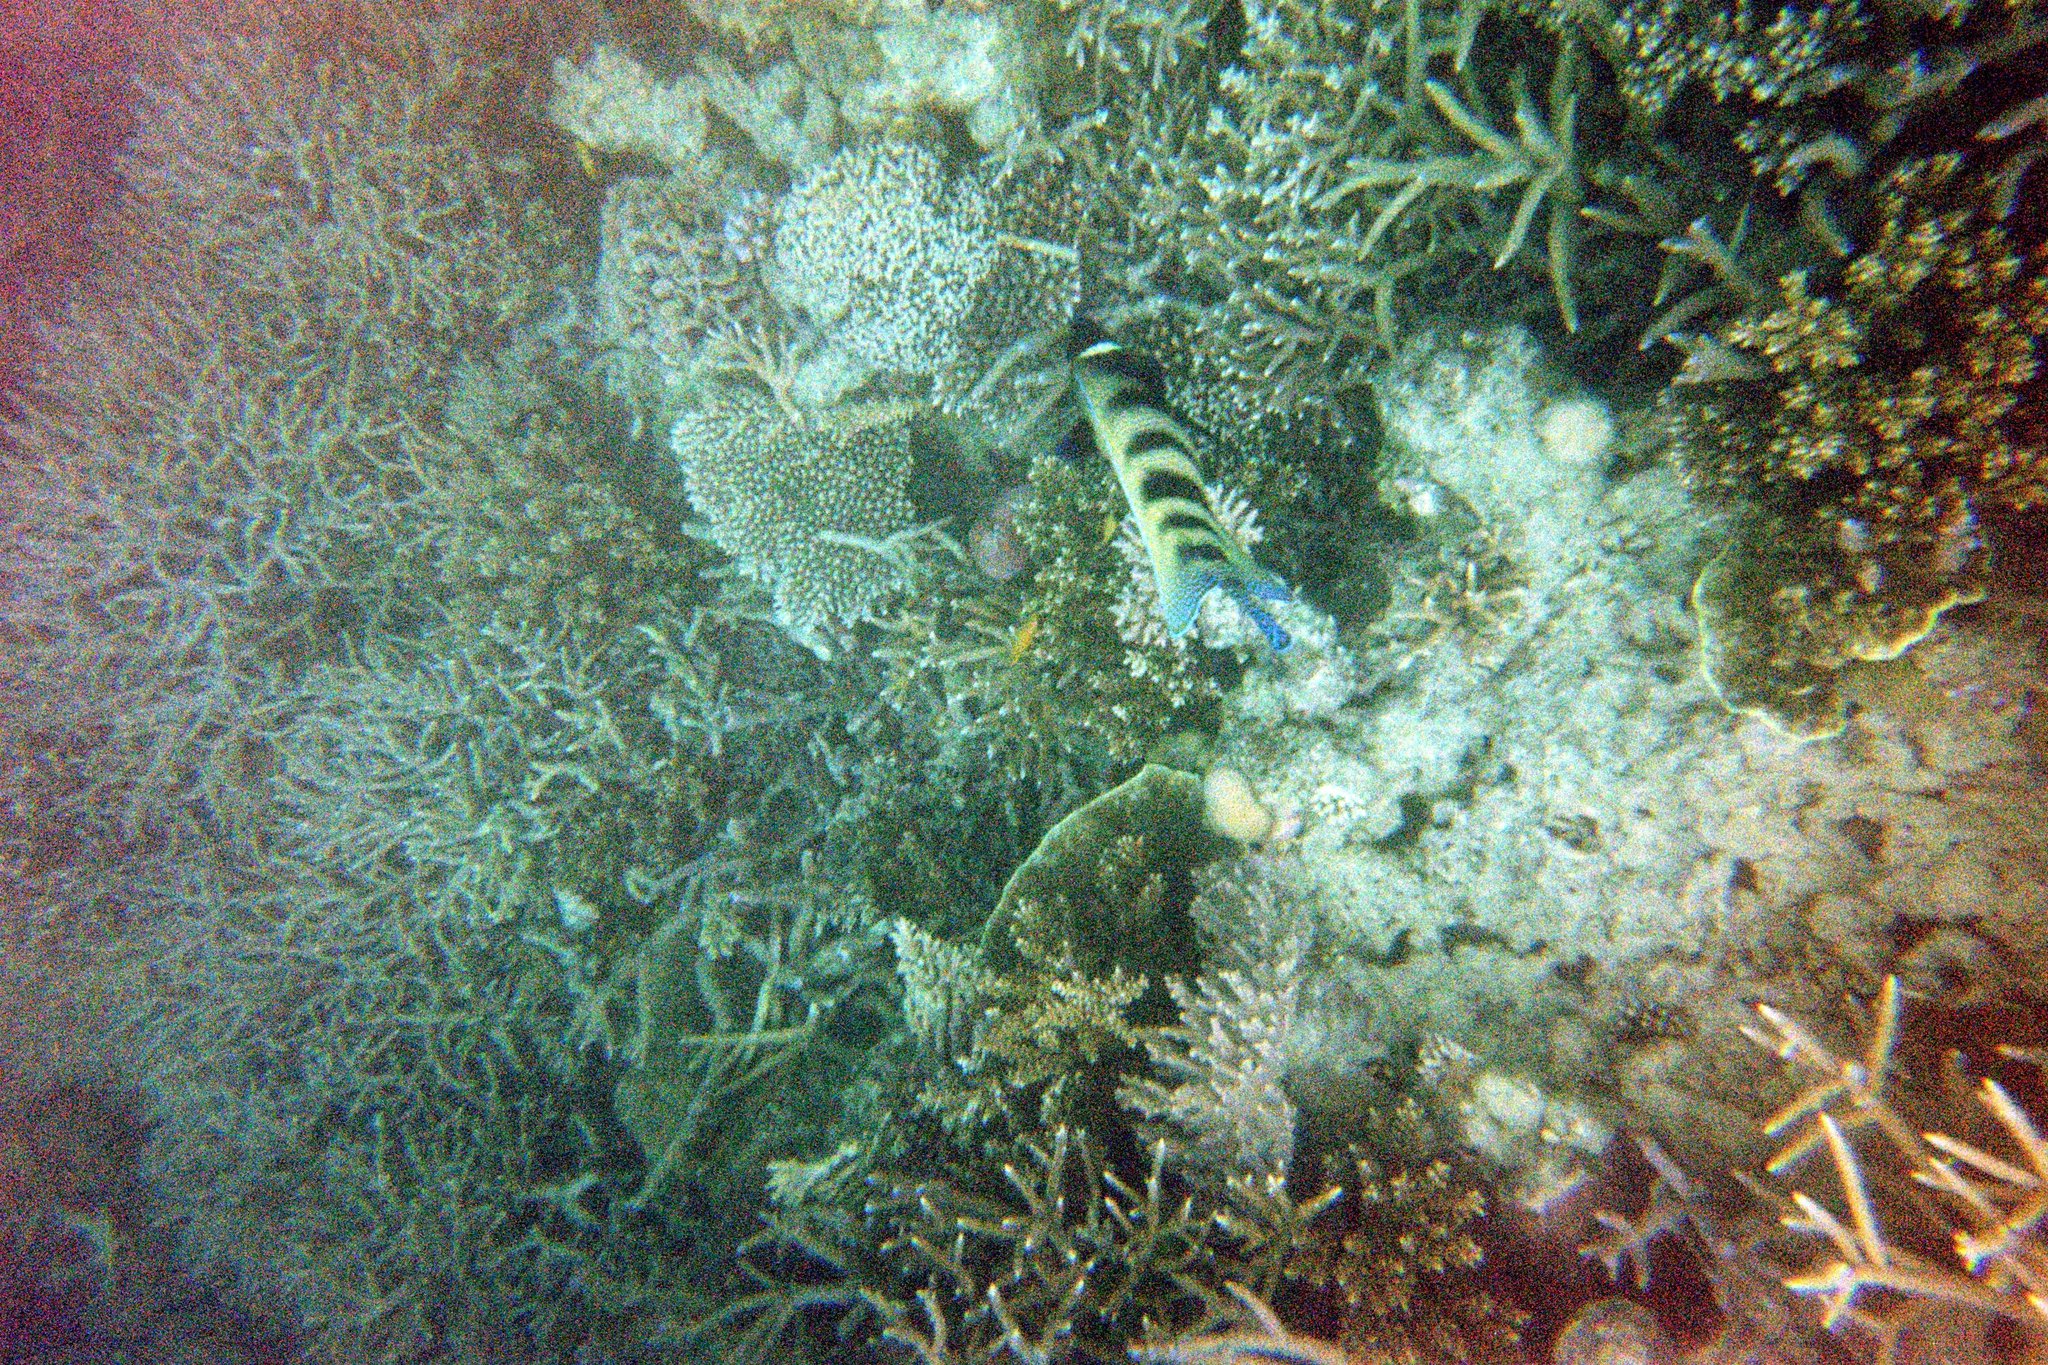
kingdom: Animalia
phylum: Chordata
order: Perciformes
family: Pomacanthidae
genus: Pomacanthus
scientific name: Pomacanthus sexstriatus
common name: Six-banded angelfish
